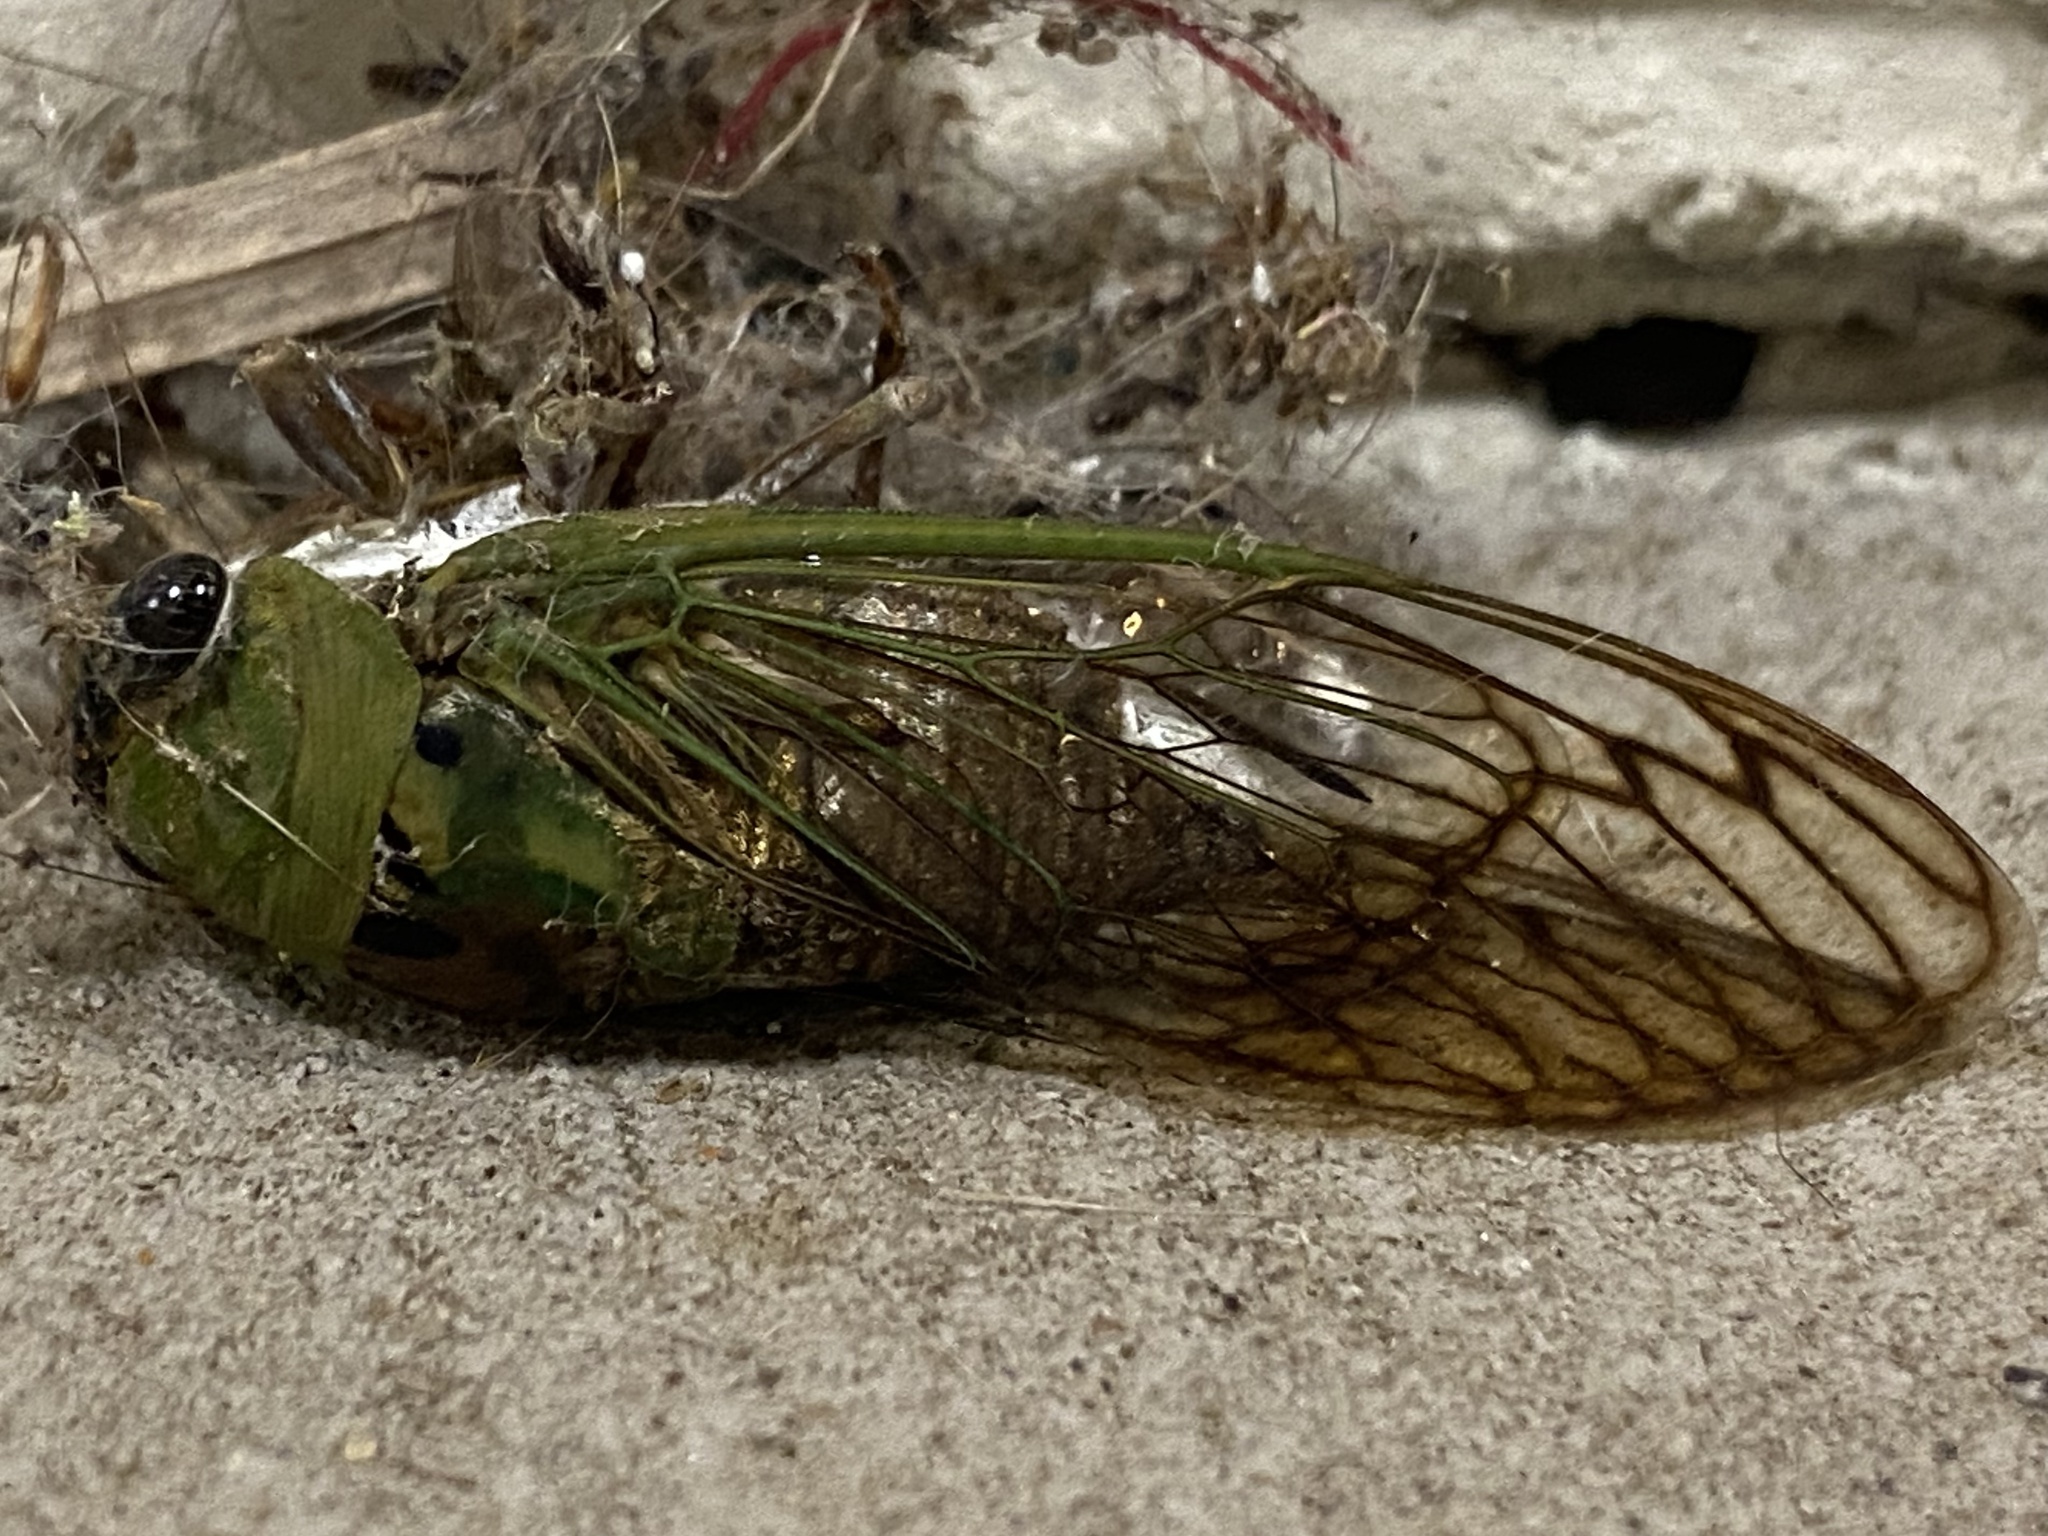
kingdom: Animalia
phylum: Arthropoda
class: Insecta
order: Hemiptera
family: Cicadidae
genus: Neotibicen
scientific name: Neotibicen superbus
